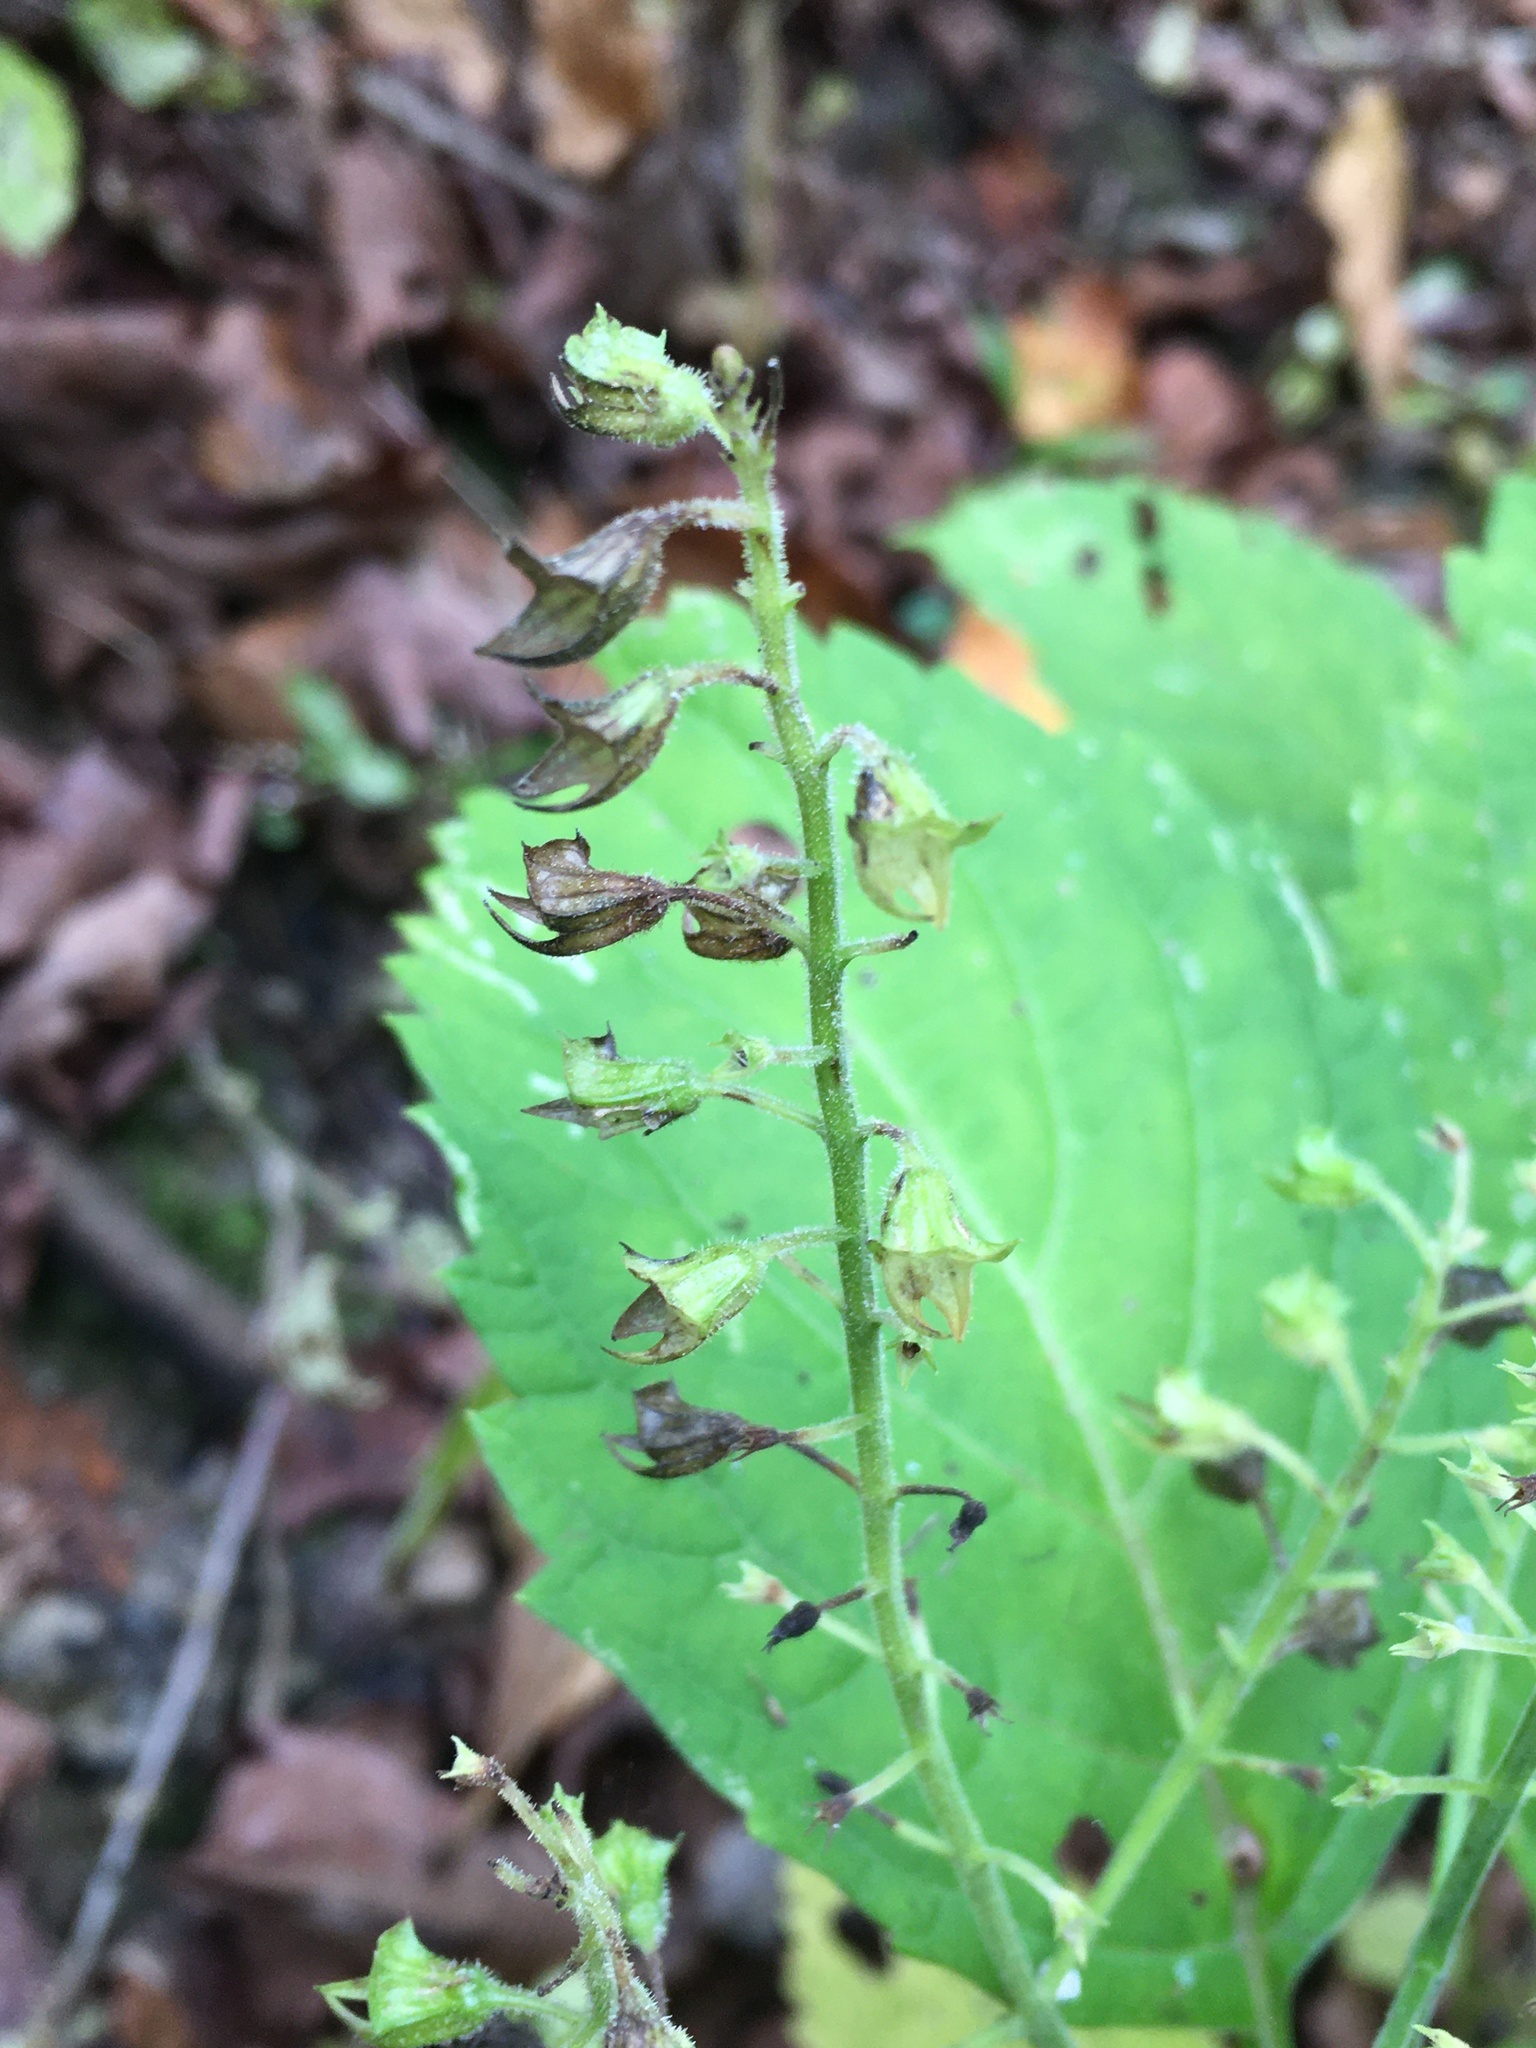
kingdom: Plantae
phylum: Tracheophyta
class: Magnoliopsida
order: Lamiales
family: Lamiaceae
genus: Collinsonia
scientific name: Collinsonia canadensis
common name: Northern horsebalm
